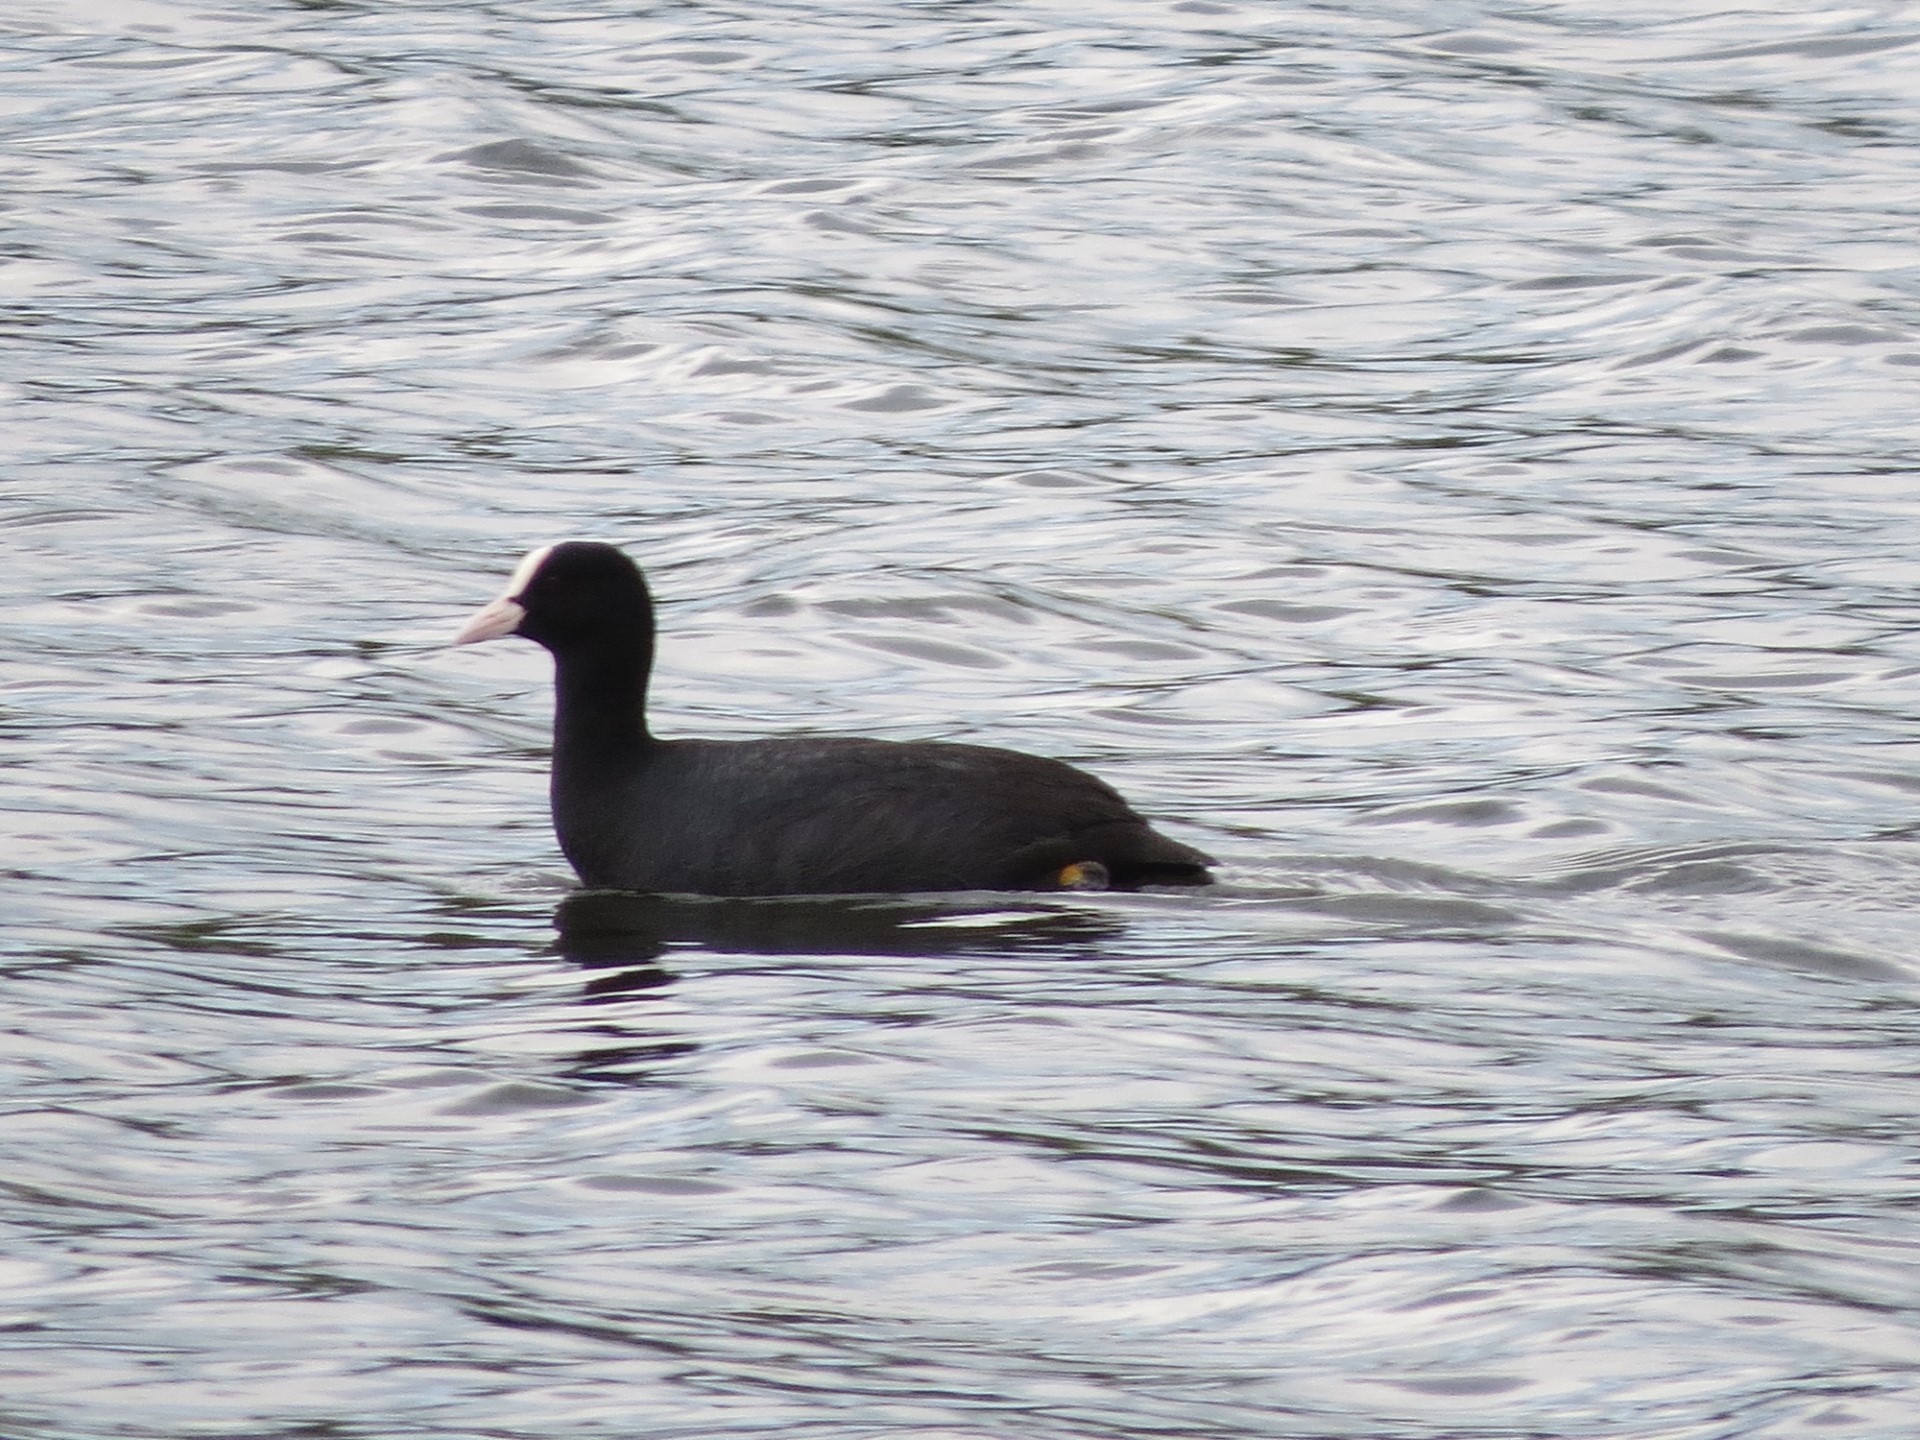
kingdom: Animalia
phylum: Chordata
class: Aves
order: Gruiformes
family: Rallidae
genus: Fulica
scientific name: Fulica atra
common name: Eurasian coot
